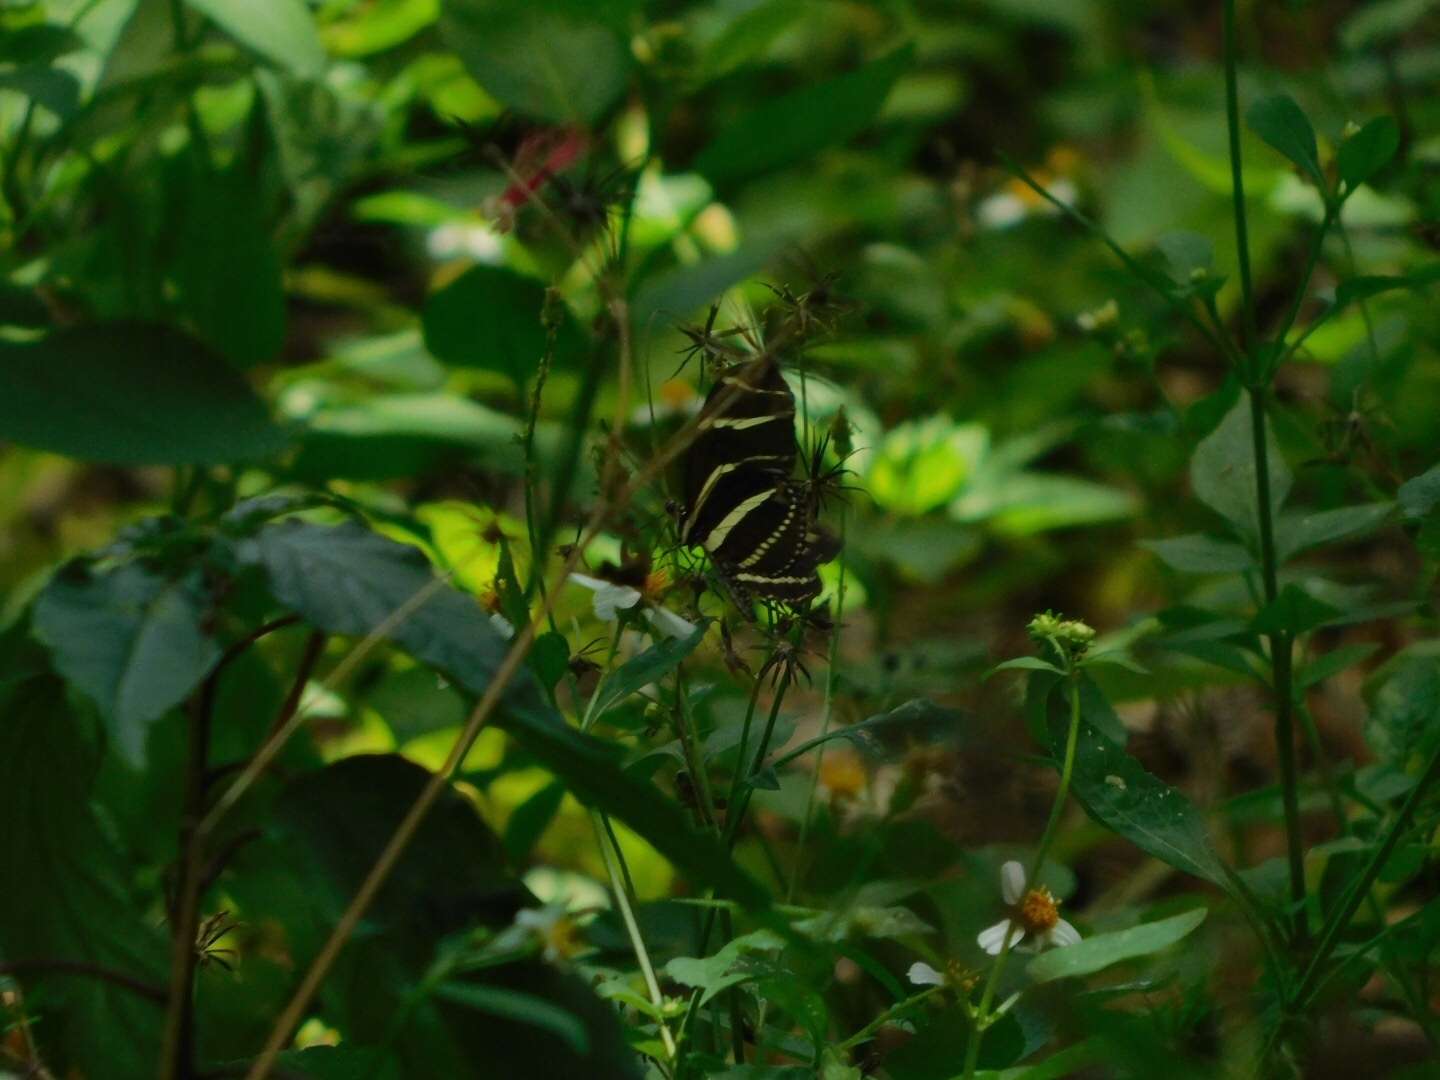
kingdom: Animalia
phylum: Arthropoda
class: Insecta
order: Lepidoptera
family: Nymphalidae
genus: Heliconius
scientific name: Heliconius charithonia
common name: Zebra long wing
